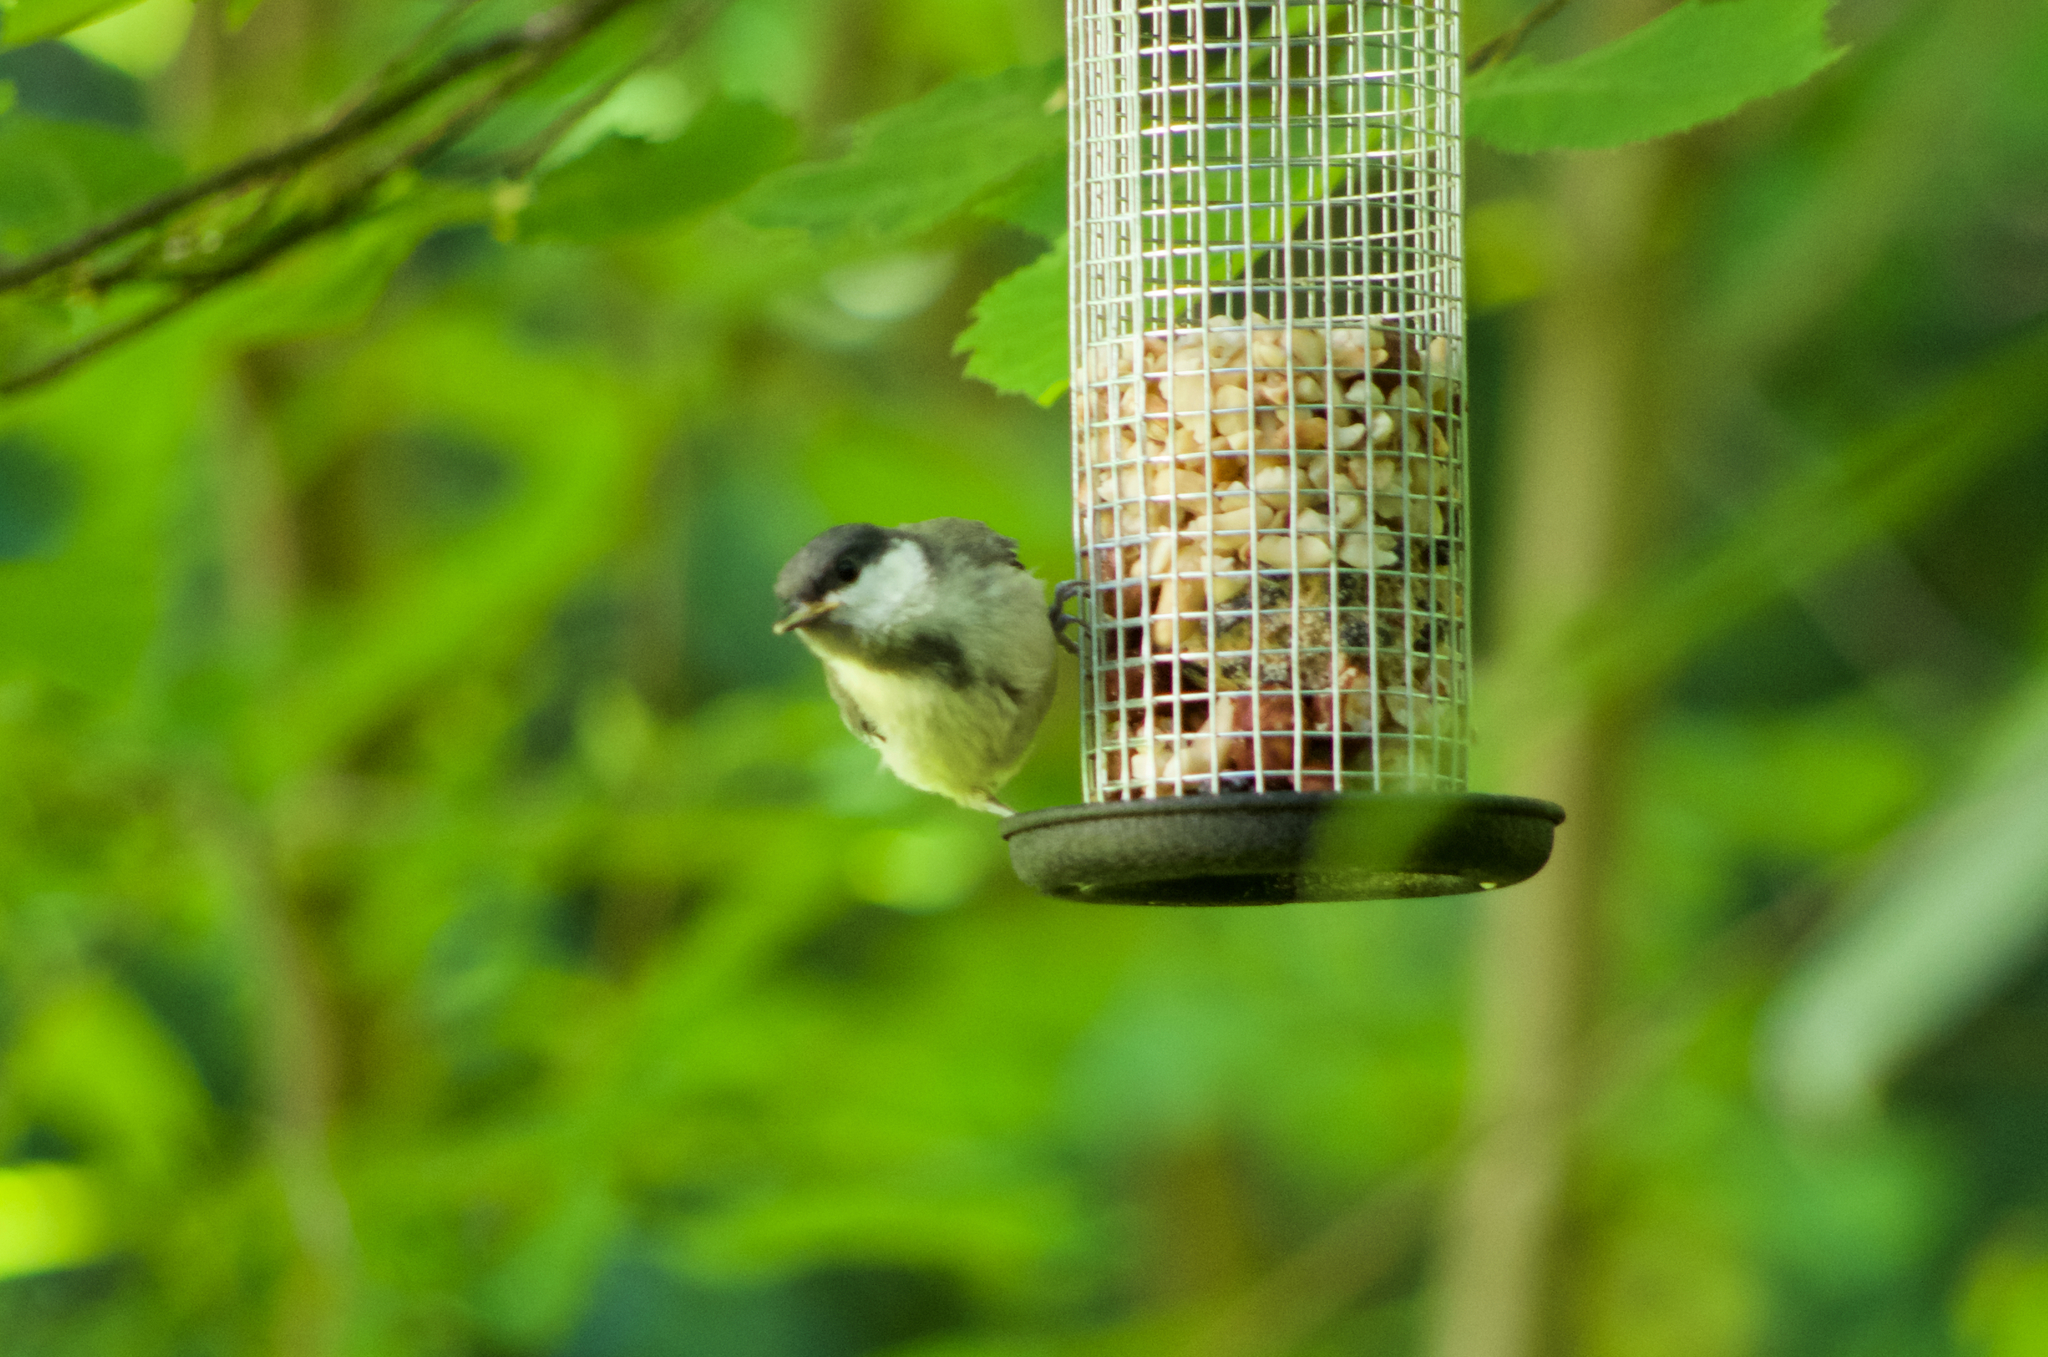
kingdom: Animalia
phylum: Chordata
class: Aves
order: Passeriformes
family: Paridae
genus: Parus
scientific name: Parus major
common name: Great tit
